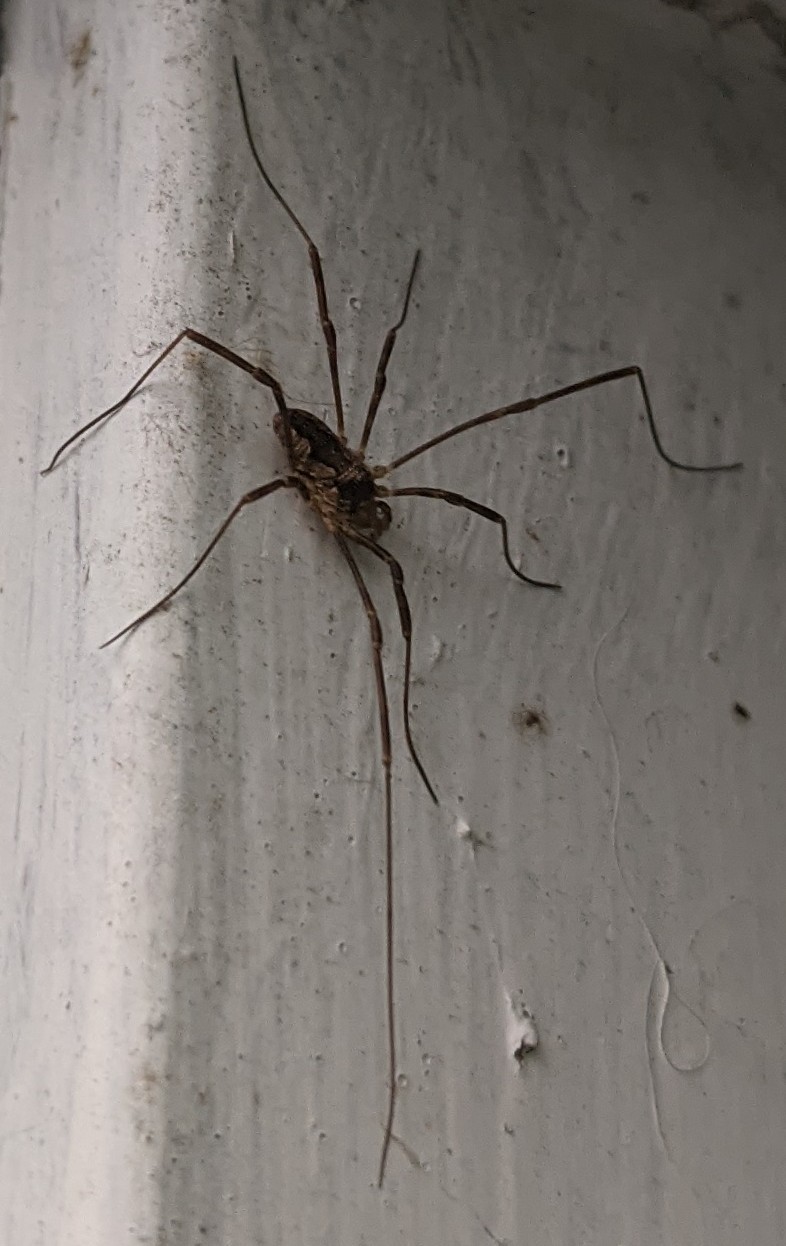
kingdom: Animalia
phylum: Arthropoda
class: Arachnida
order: Opiliones
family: Phalangiidae
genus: Odiellus
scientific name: Odiellus pictus
